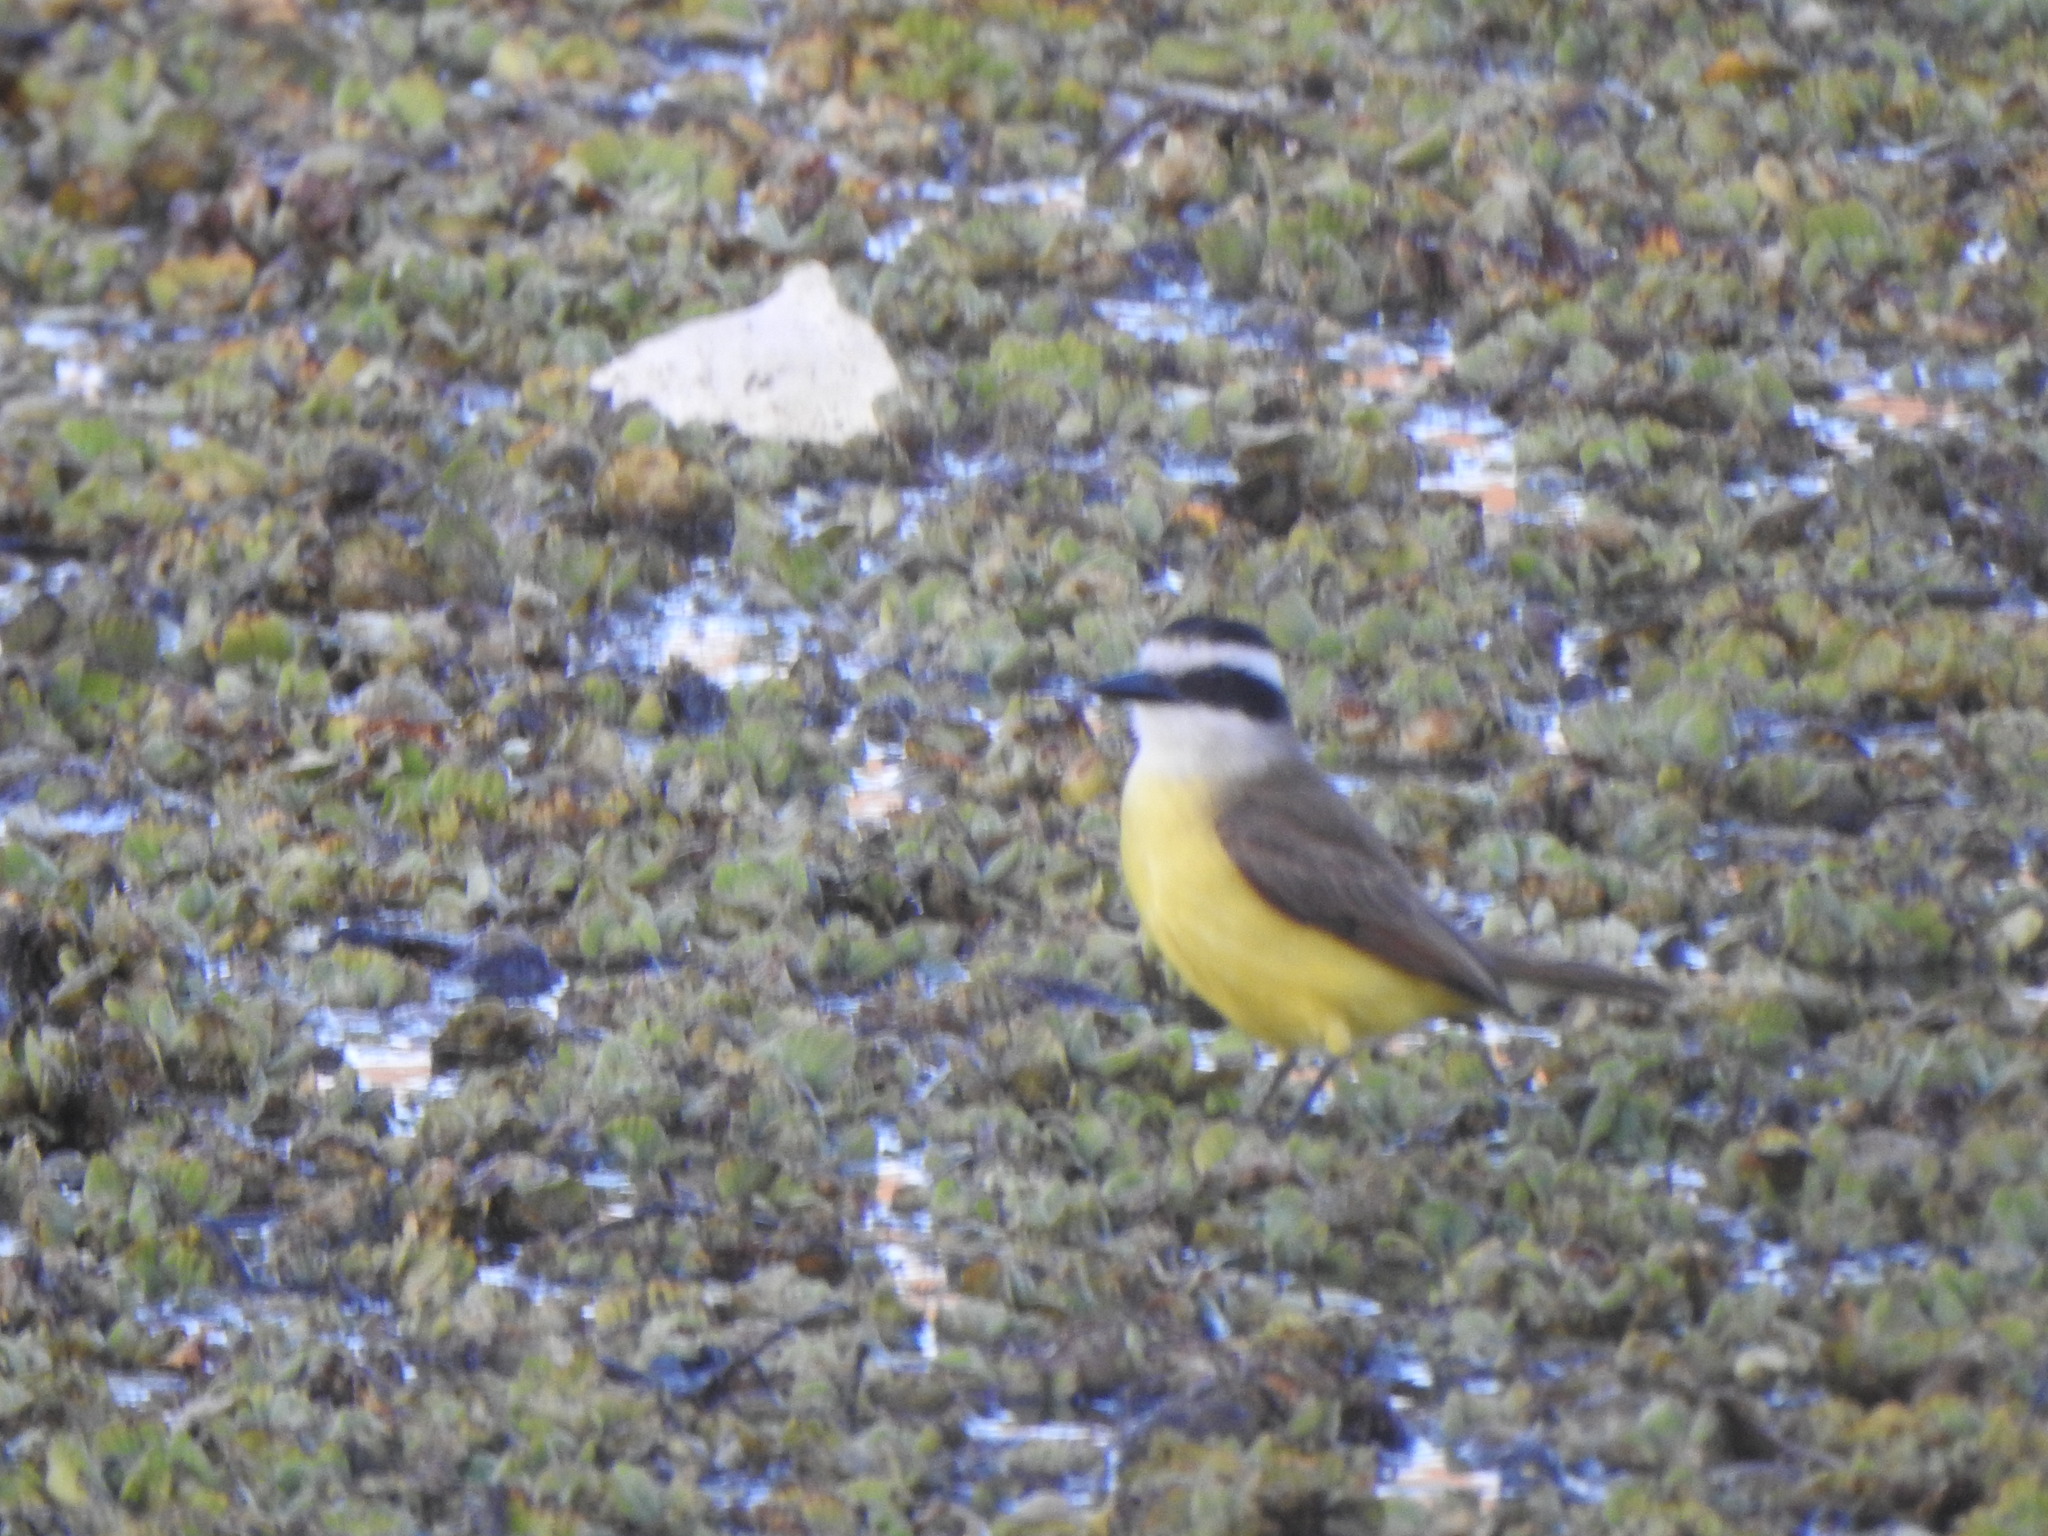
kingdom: Animalia
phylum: Chordata
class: Aves
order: Passeriformes
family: Tyrannidae
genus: Pitangus
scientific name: Pitangus sulphuratus
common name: Great kiskadee
